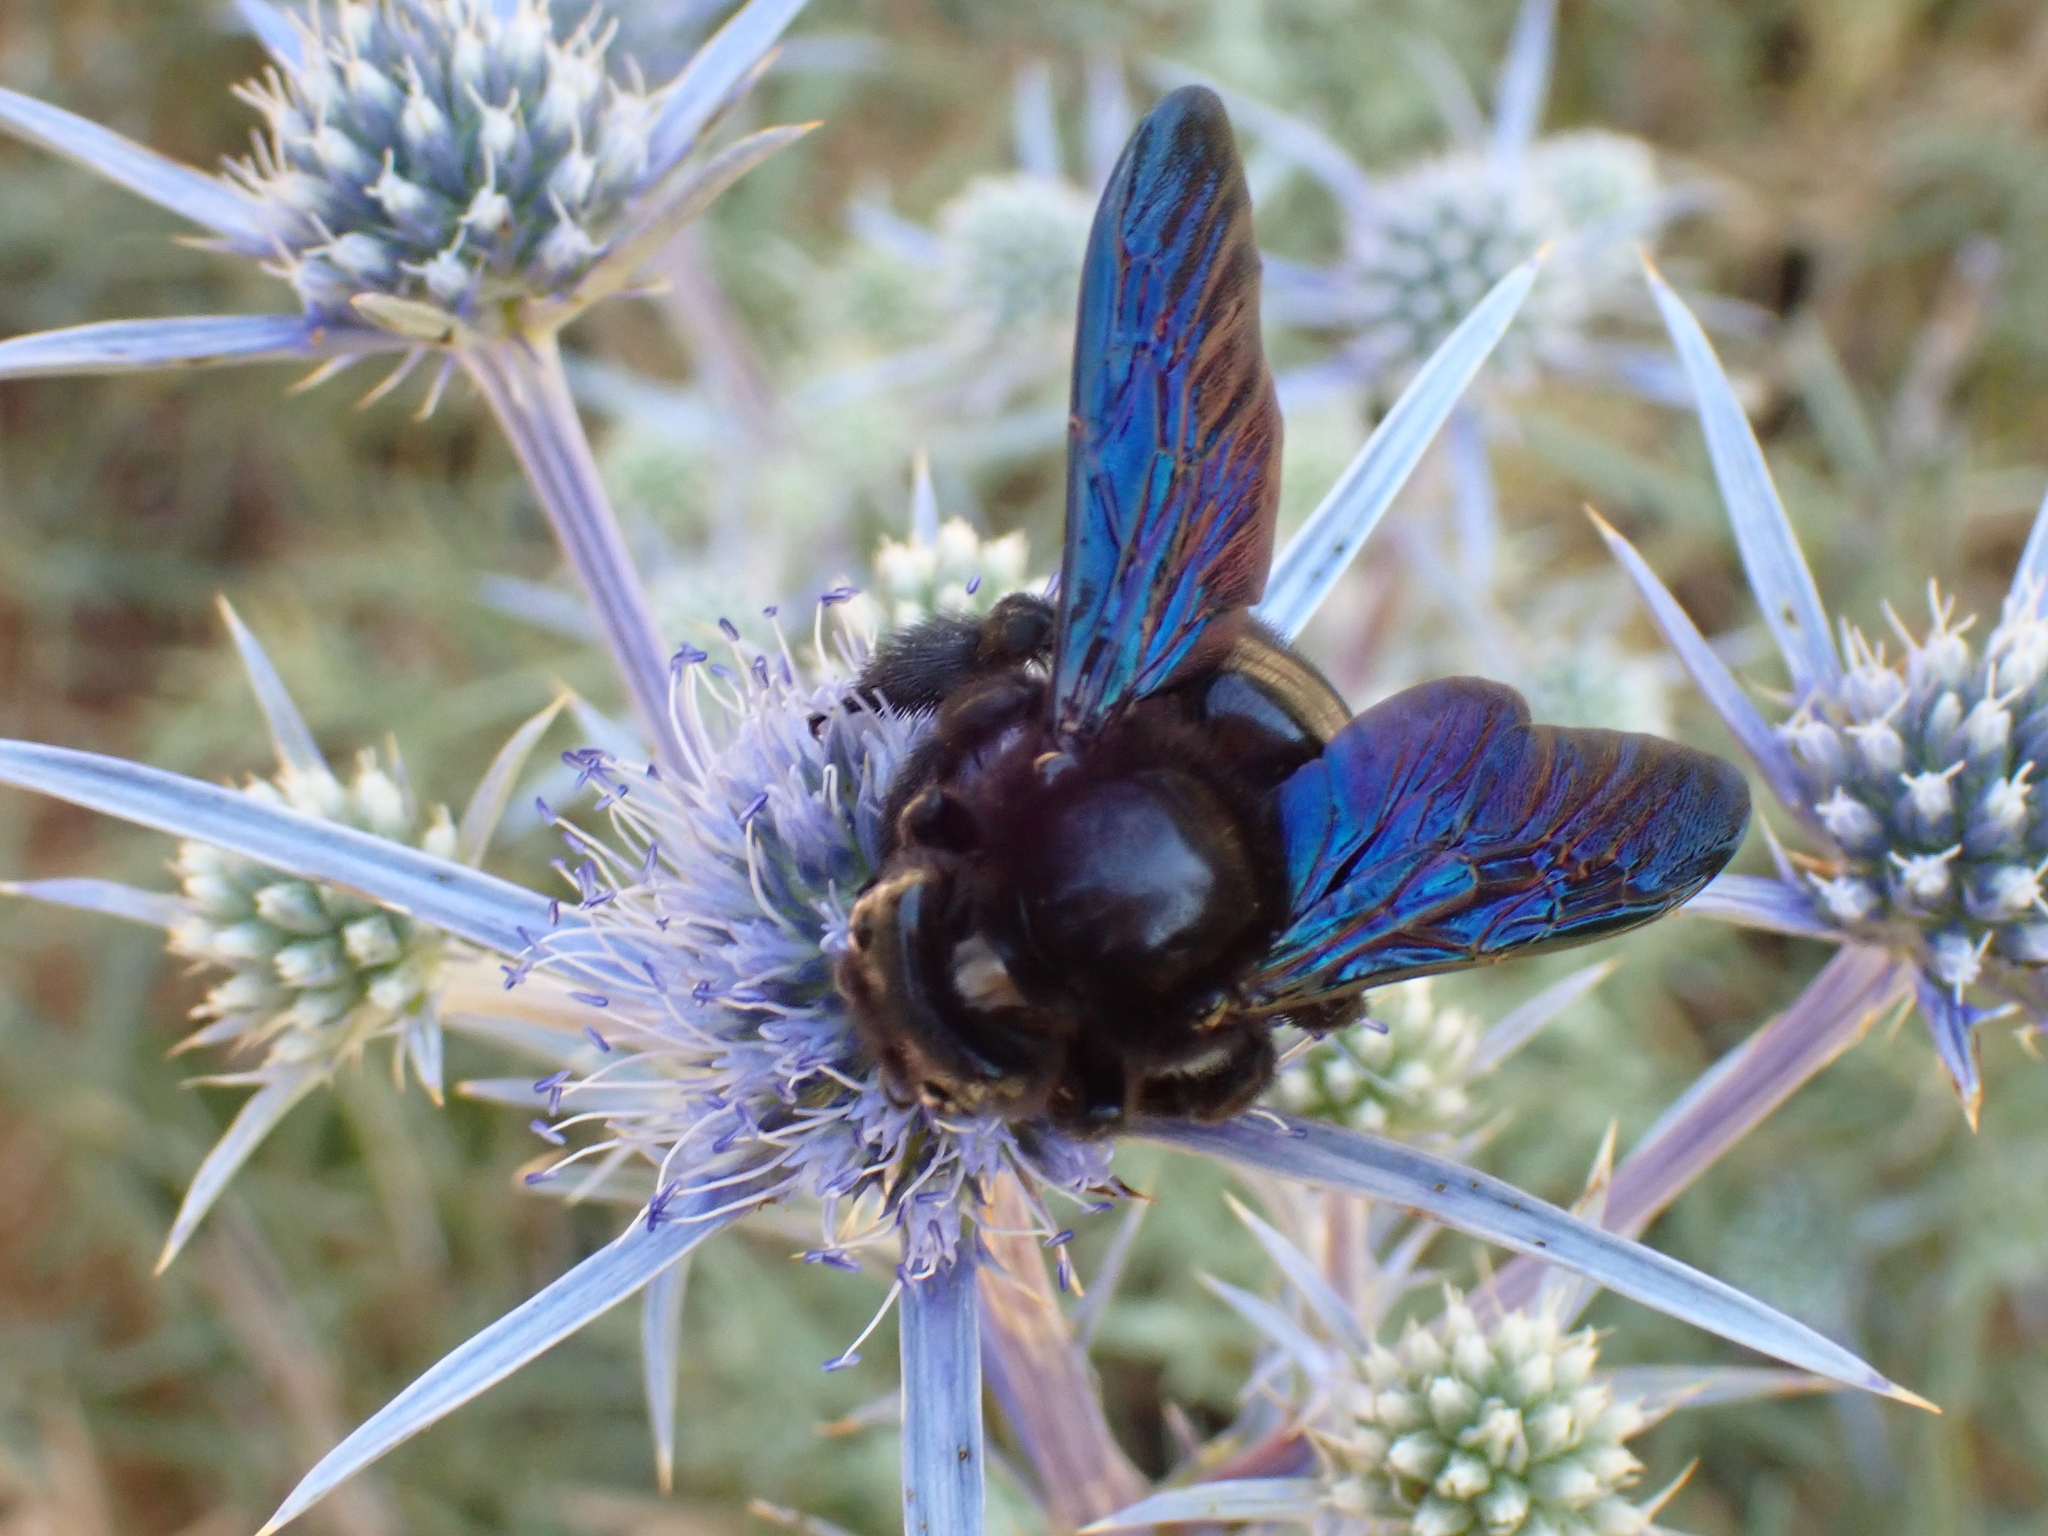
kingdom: Animalia
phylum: Arthropoda
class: Insecta
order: Hymenoptera
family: Apidae
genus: Xylocopa
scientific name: Xylocopa violacea
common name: Violet carpenter bee
